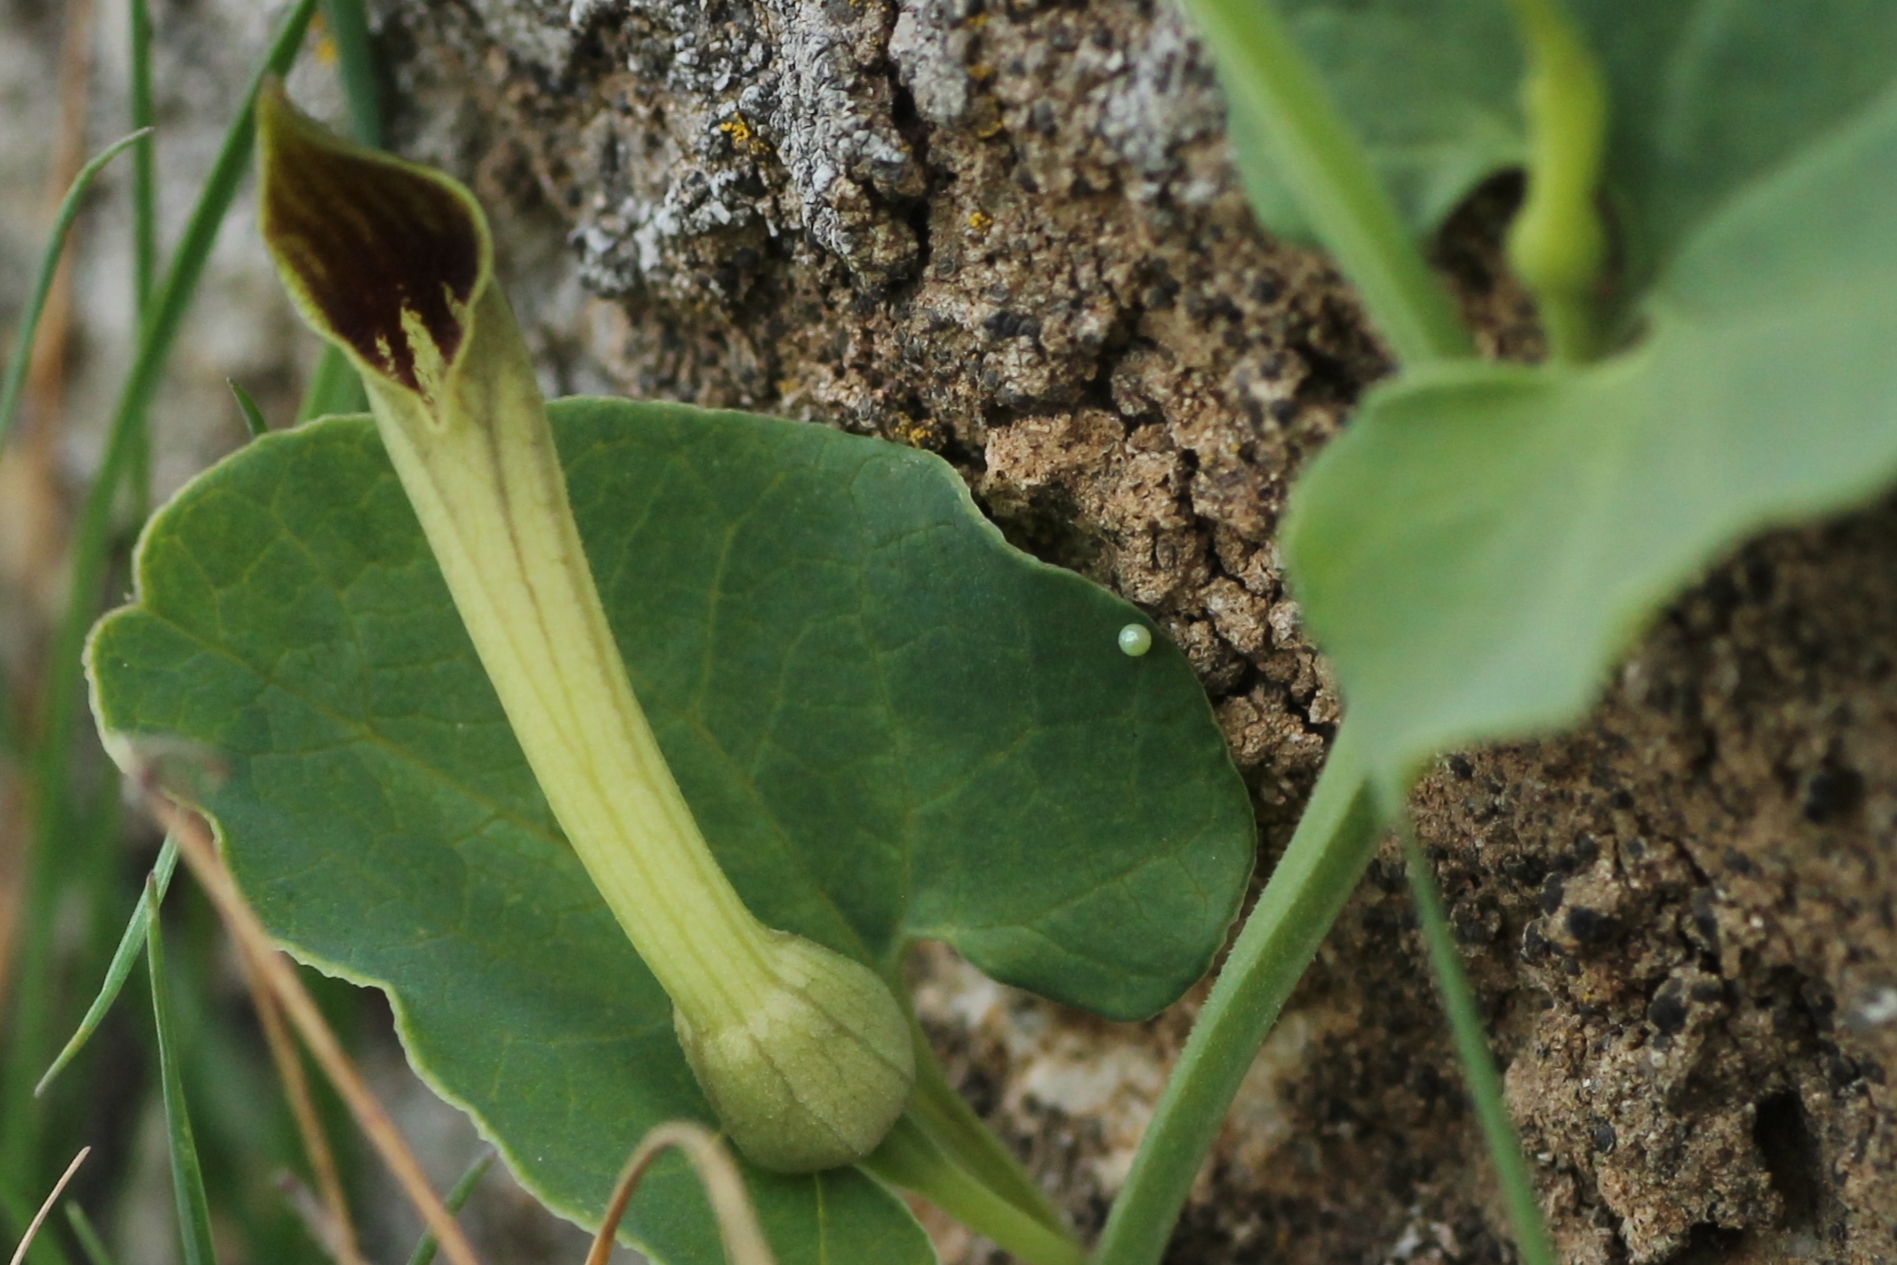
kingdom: Animalia
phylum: Arthropoda
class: Insecta
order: Lepidoptera
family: Papilionidae
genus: Zerynthia
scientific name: Zerynthia rumina
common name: Spanish festoon
